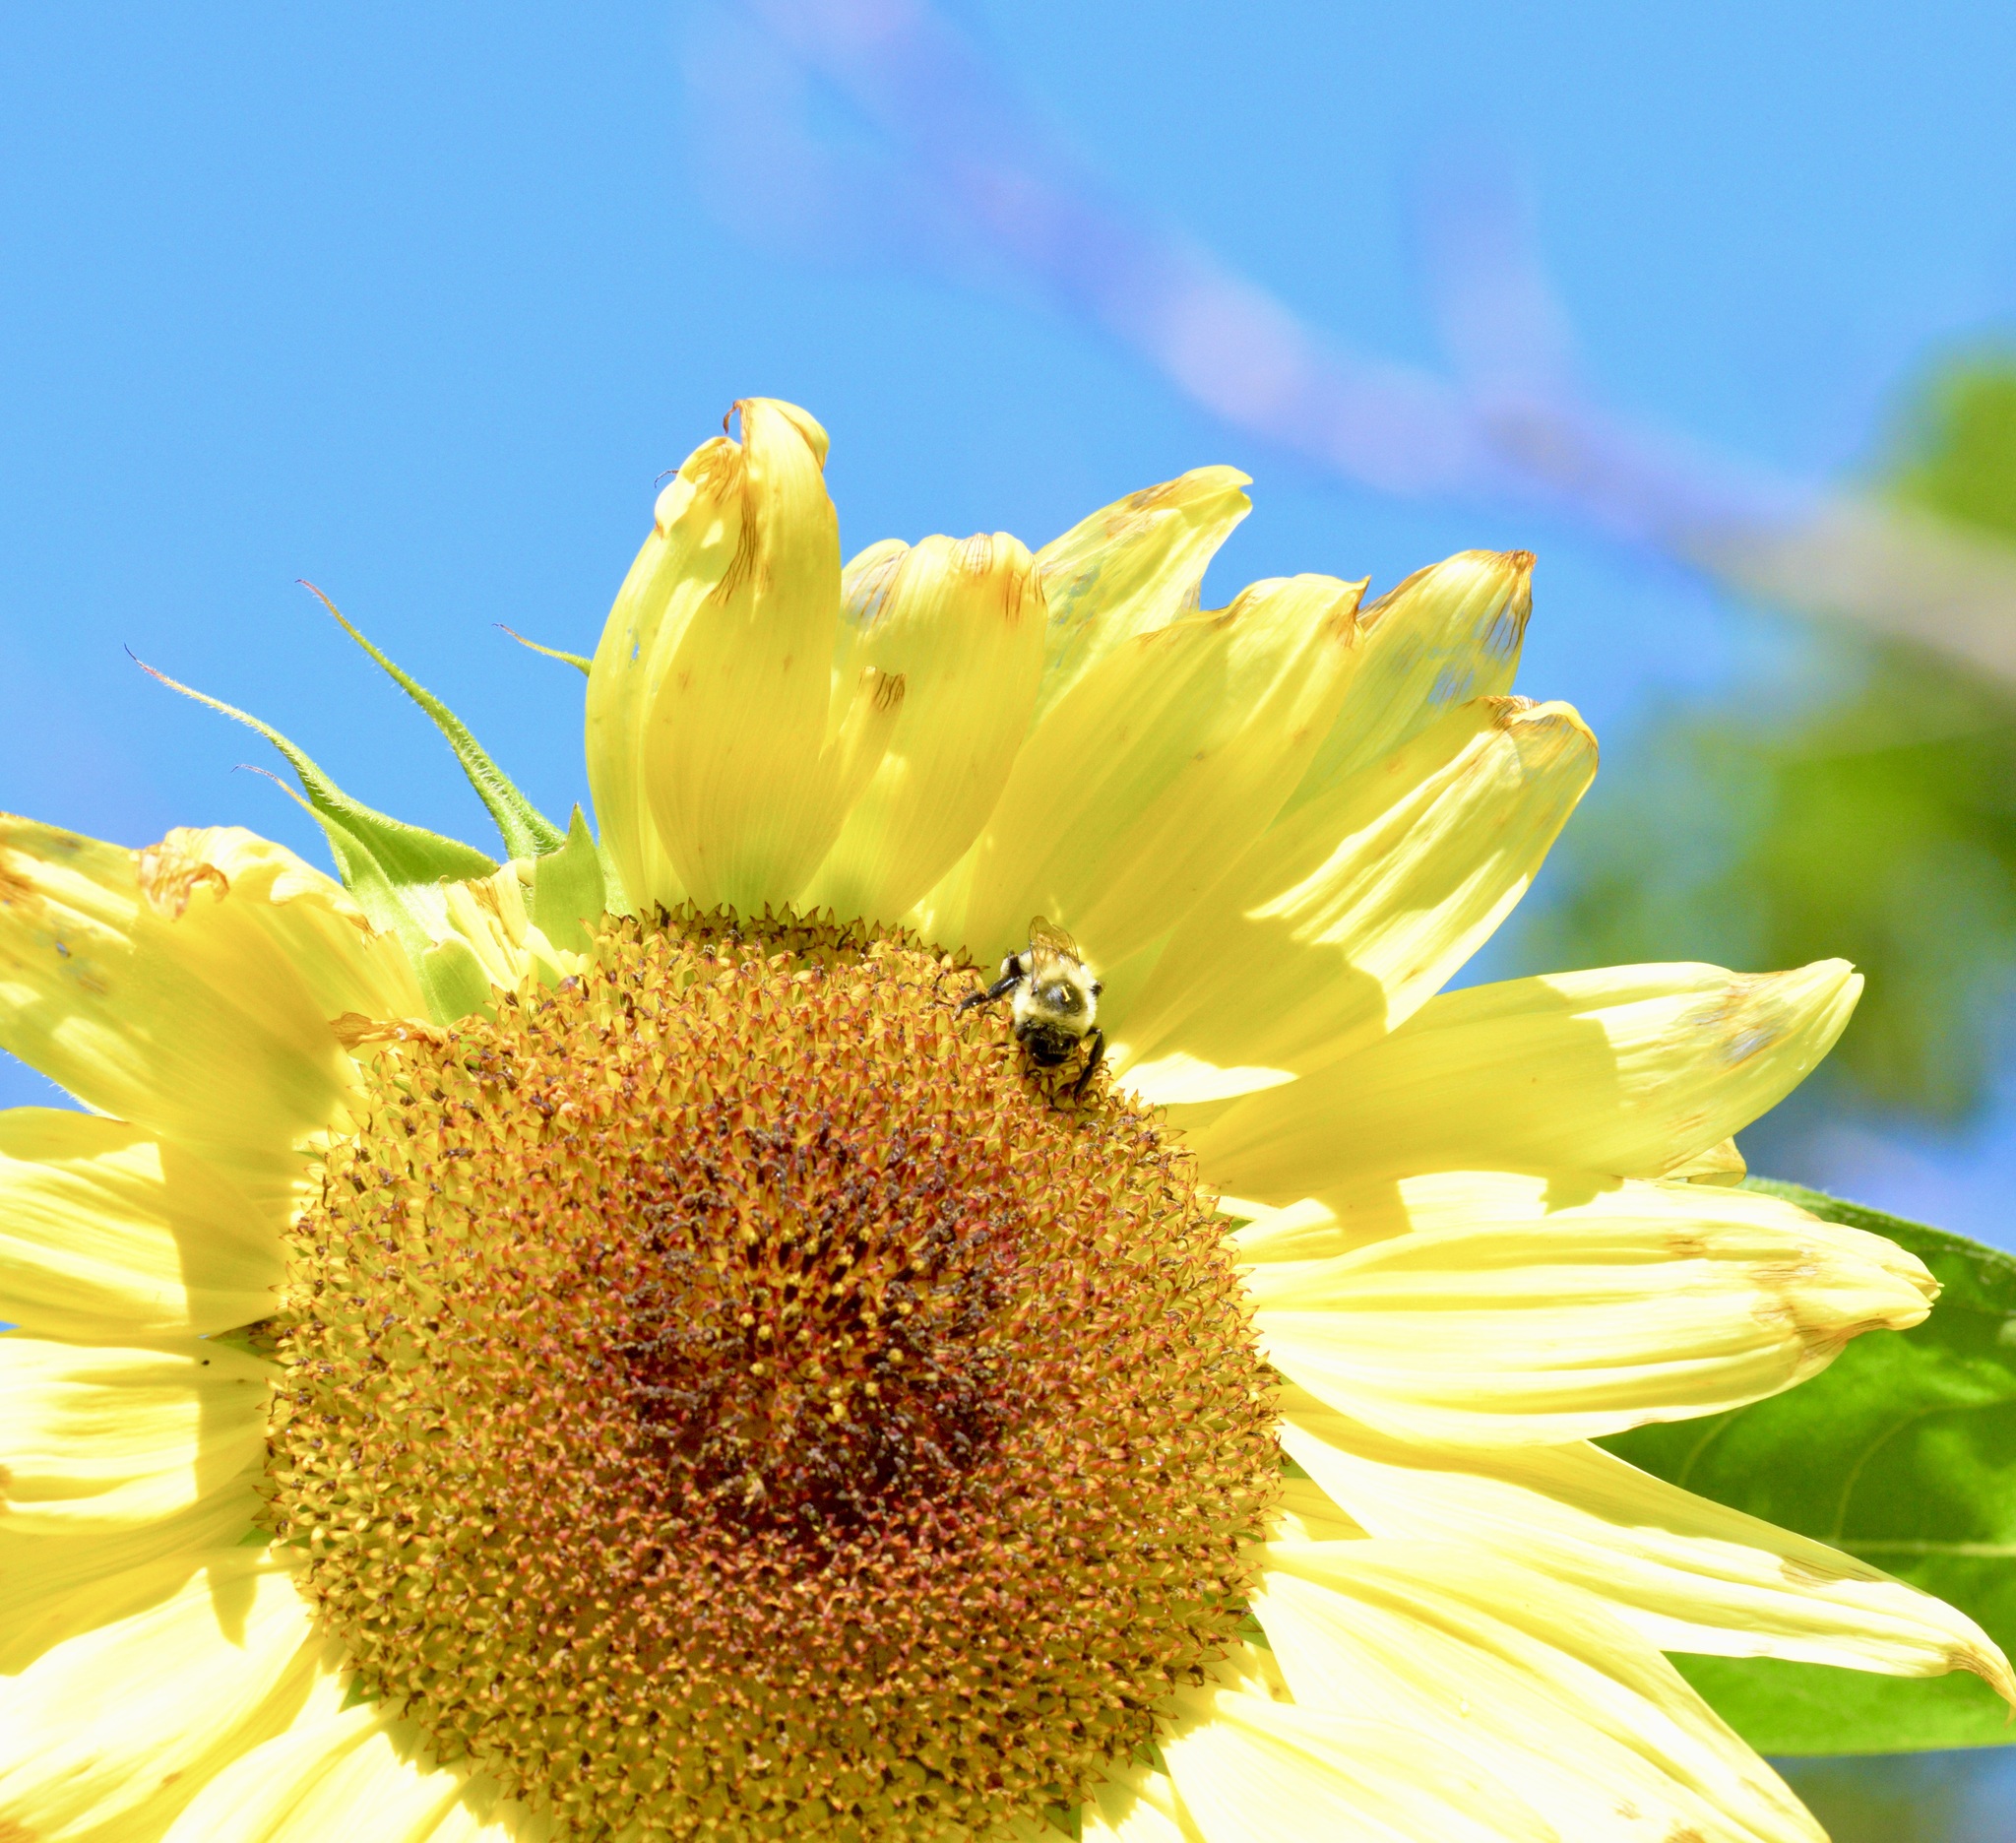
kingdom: Animalia
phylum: Arthropoda
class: Insecta
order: Hymenoptera
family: Apidae
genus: Bombus
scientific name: Bombus impatiens
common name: Common eastern bumble bee
